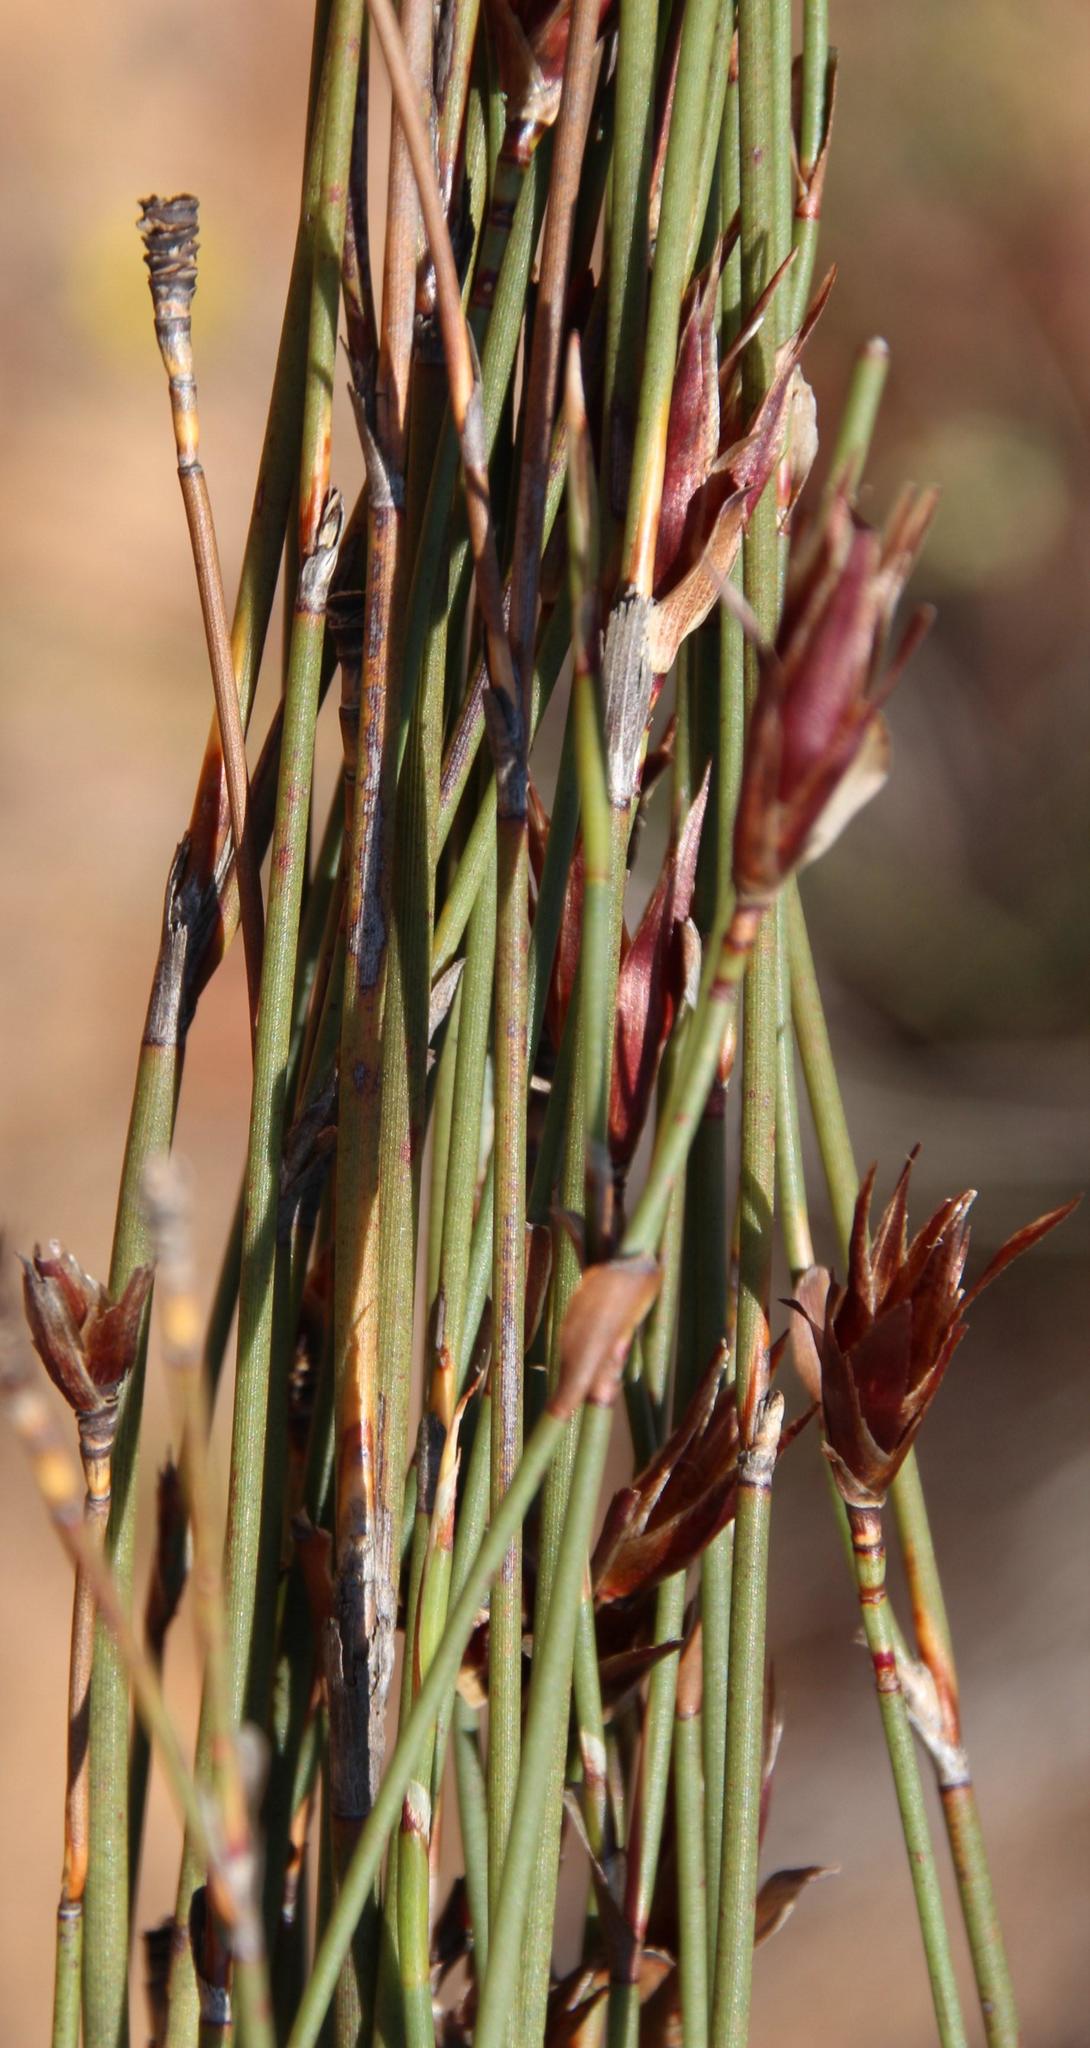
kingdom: Plantae
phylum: Tracheophyta
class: Liliopsida
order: Poales
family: Restionaceae
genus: Willdenowia
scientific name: Willdenowia incurvata
